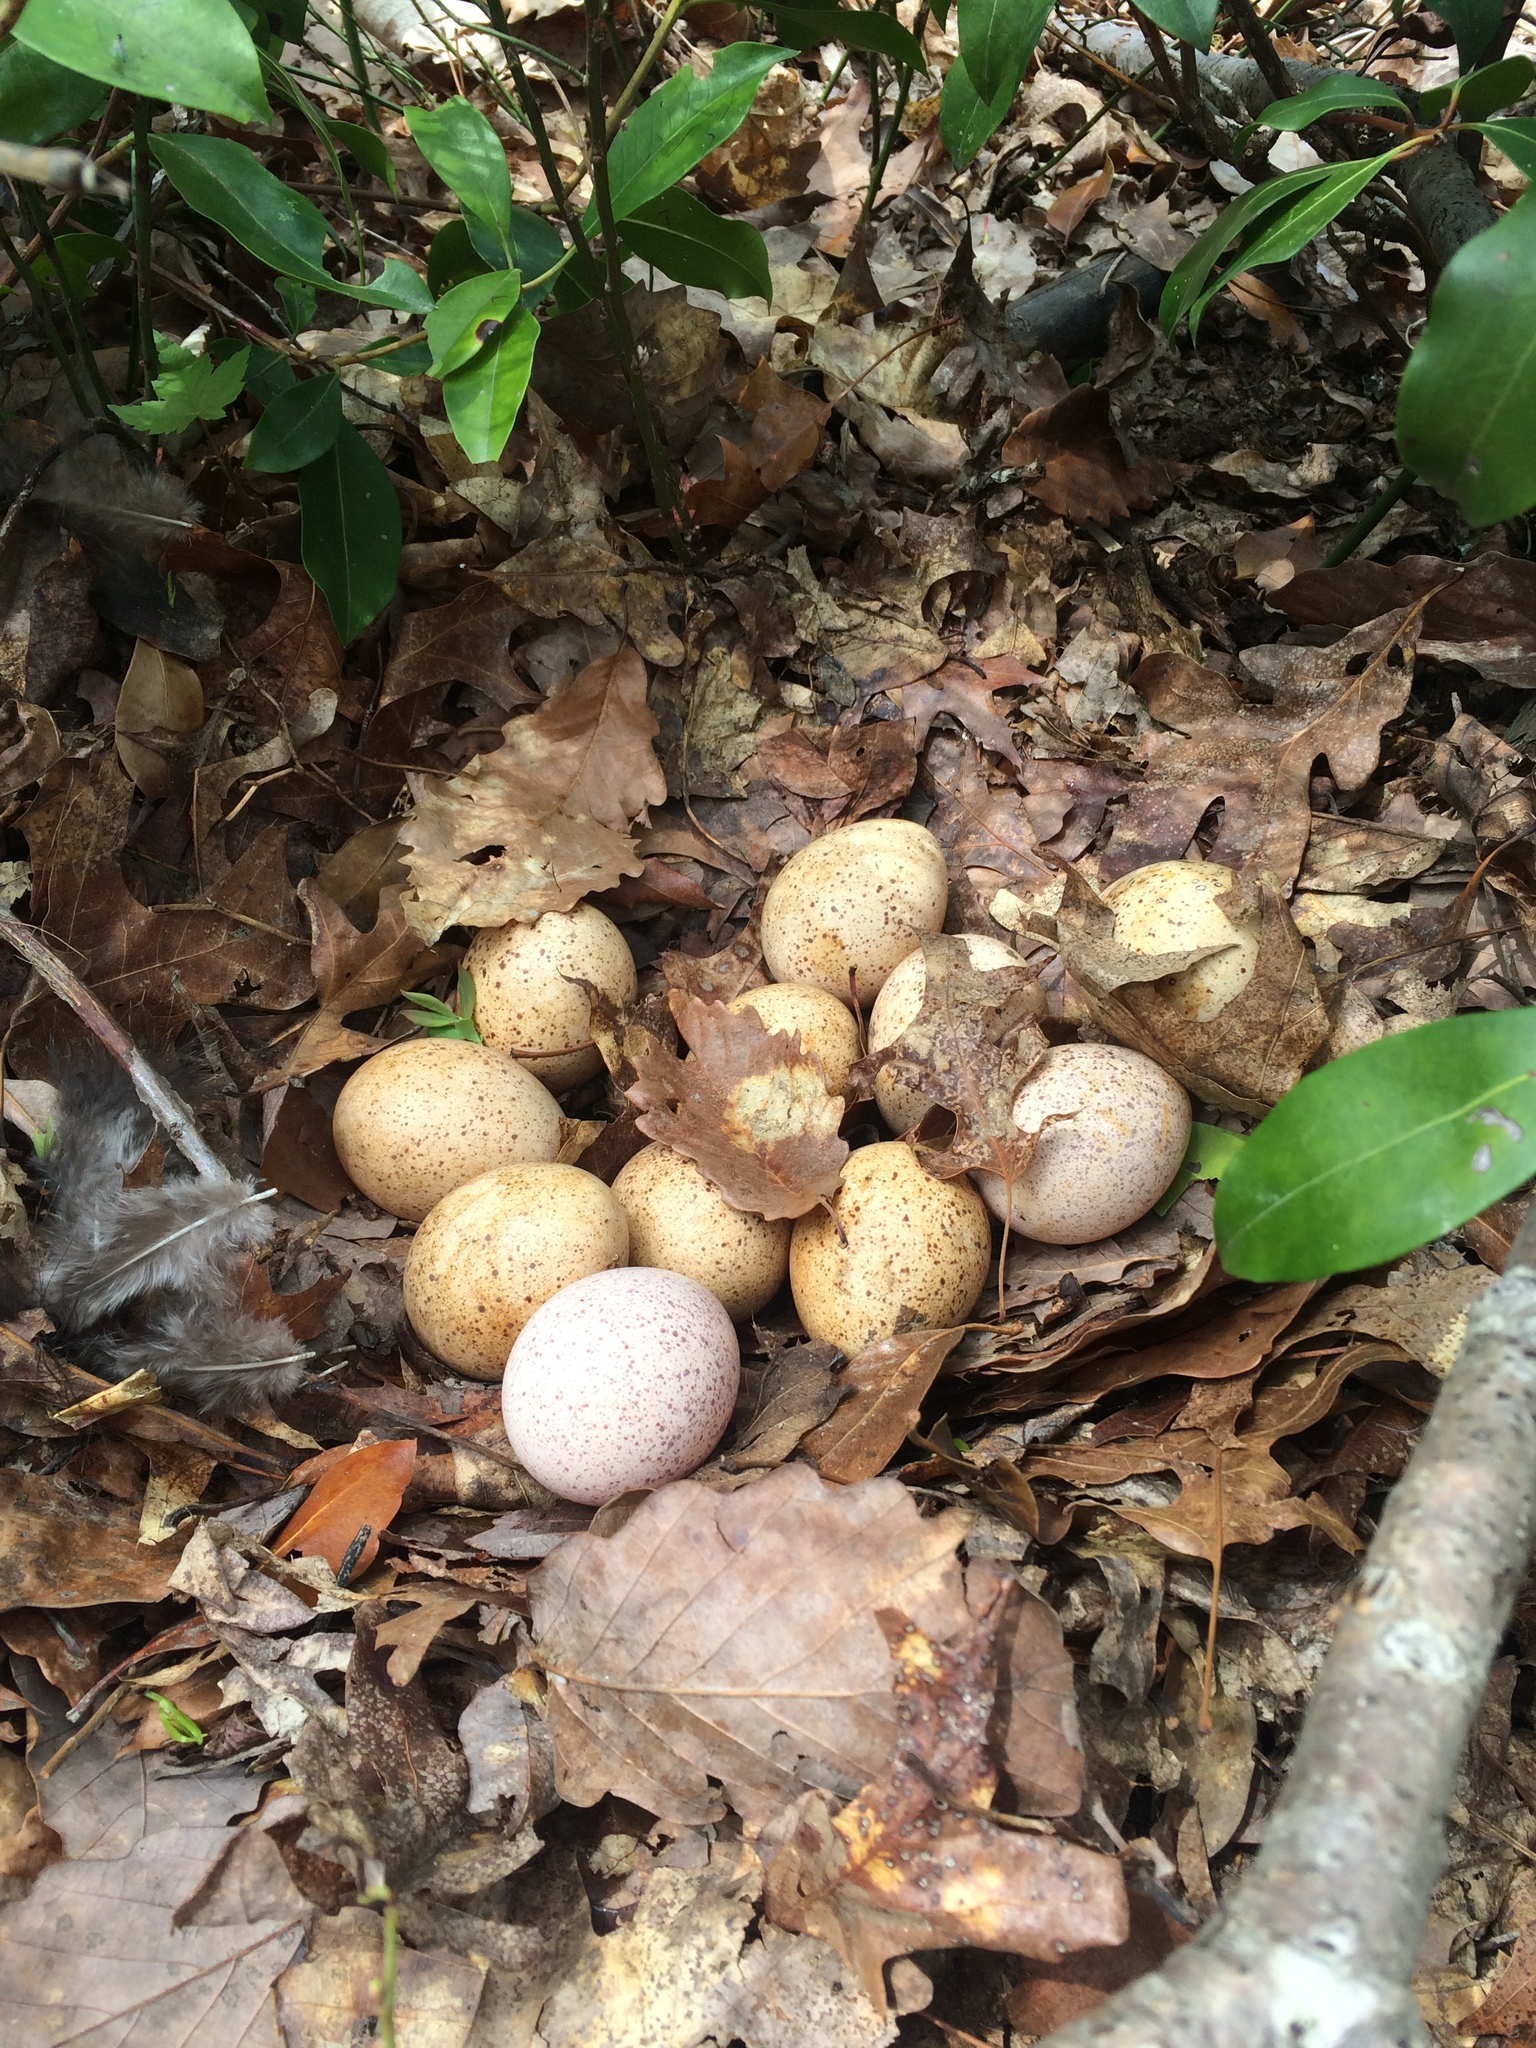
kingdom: Animalia
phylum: Chordata
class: Aves
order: Galliformes
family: Phasianidae
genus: Meleagris
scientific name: Meleagris gallopavo
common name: Wild turkey
